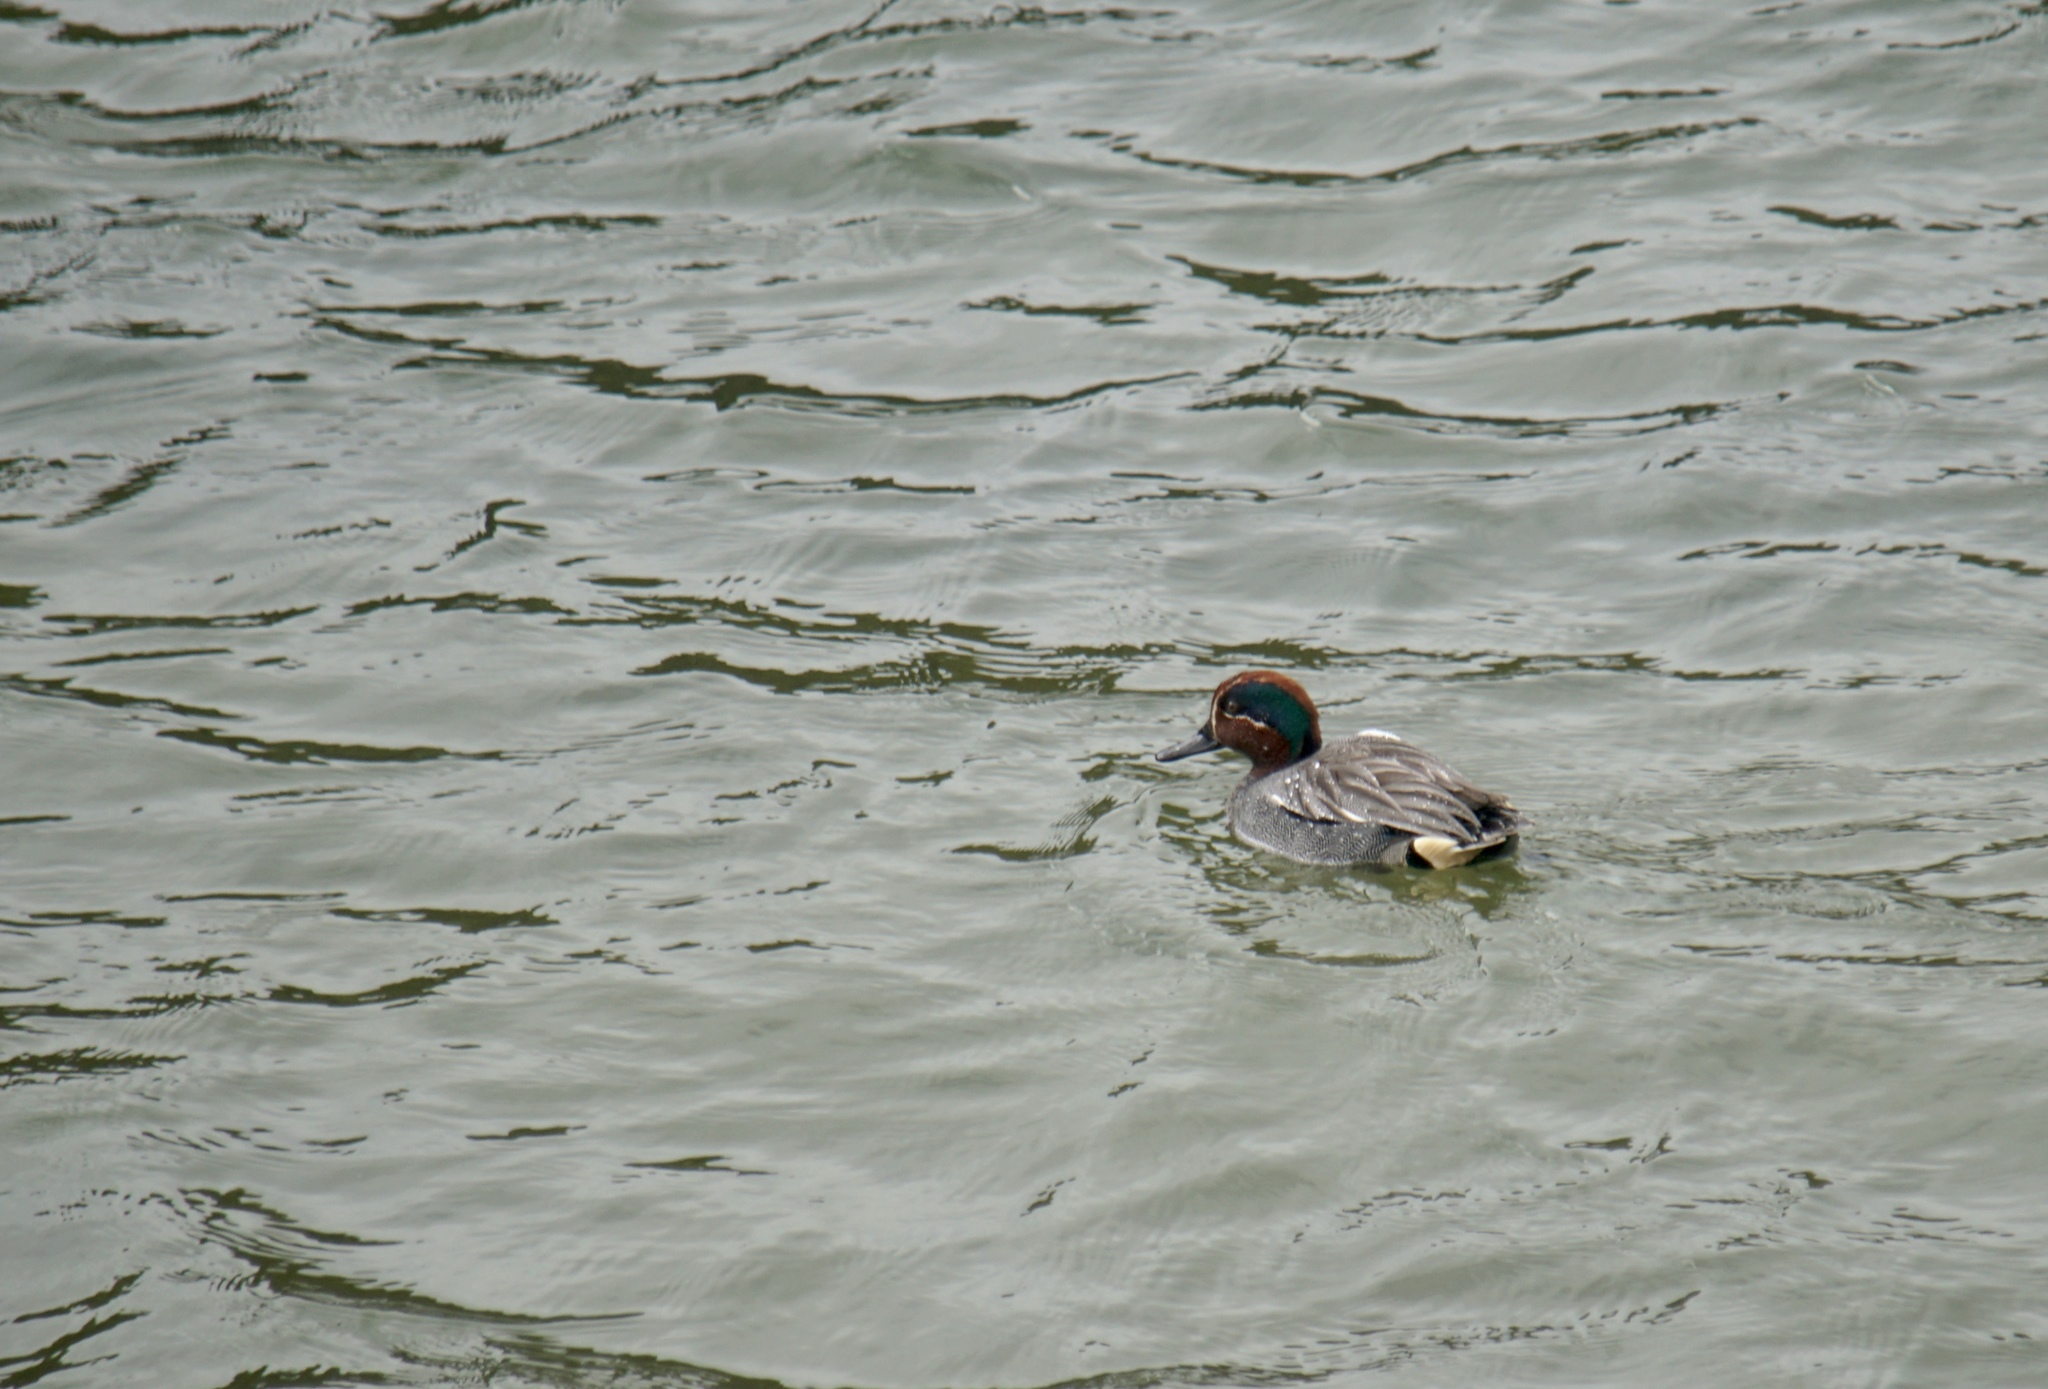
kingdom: Animalia
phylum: Chordata
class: Aves
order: Anseriformes
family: Anatidae
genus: Anas
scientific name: Anas crecca
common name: Eurasian teal
